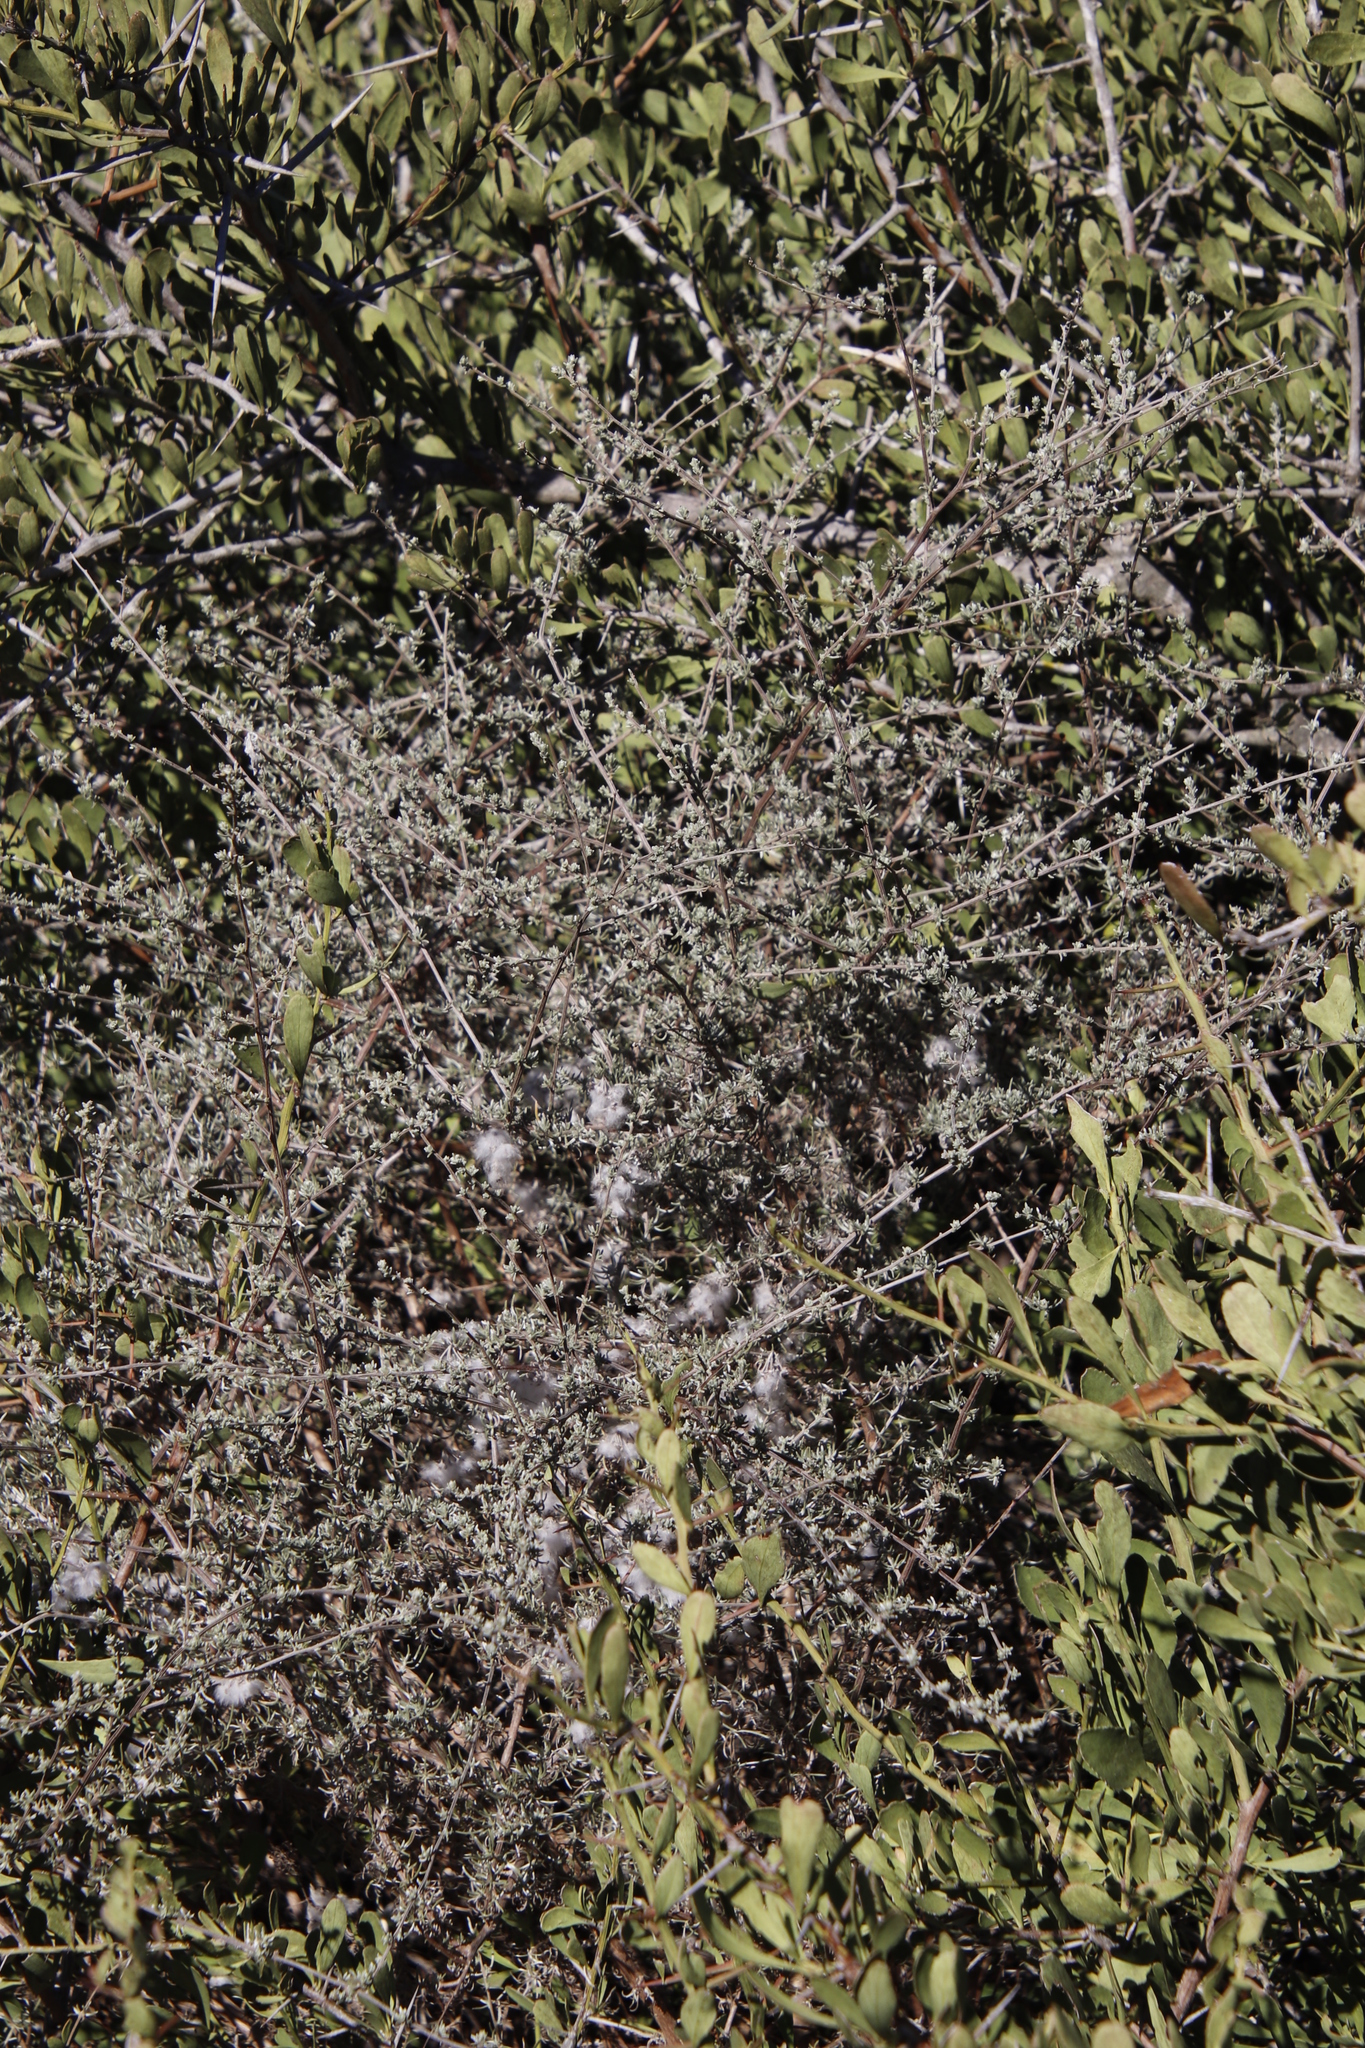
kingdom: Plantae
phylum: Tracheophyta
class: Magnoliopsida
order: Asterales
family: Asteraceae
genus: Eriocephalus
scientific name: Eriocephalus africanus
